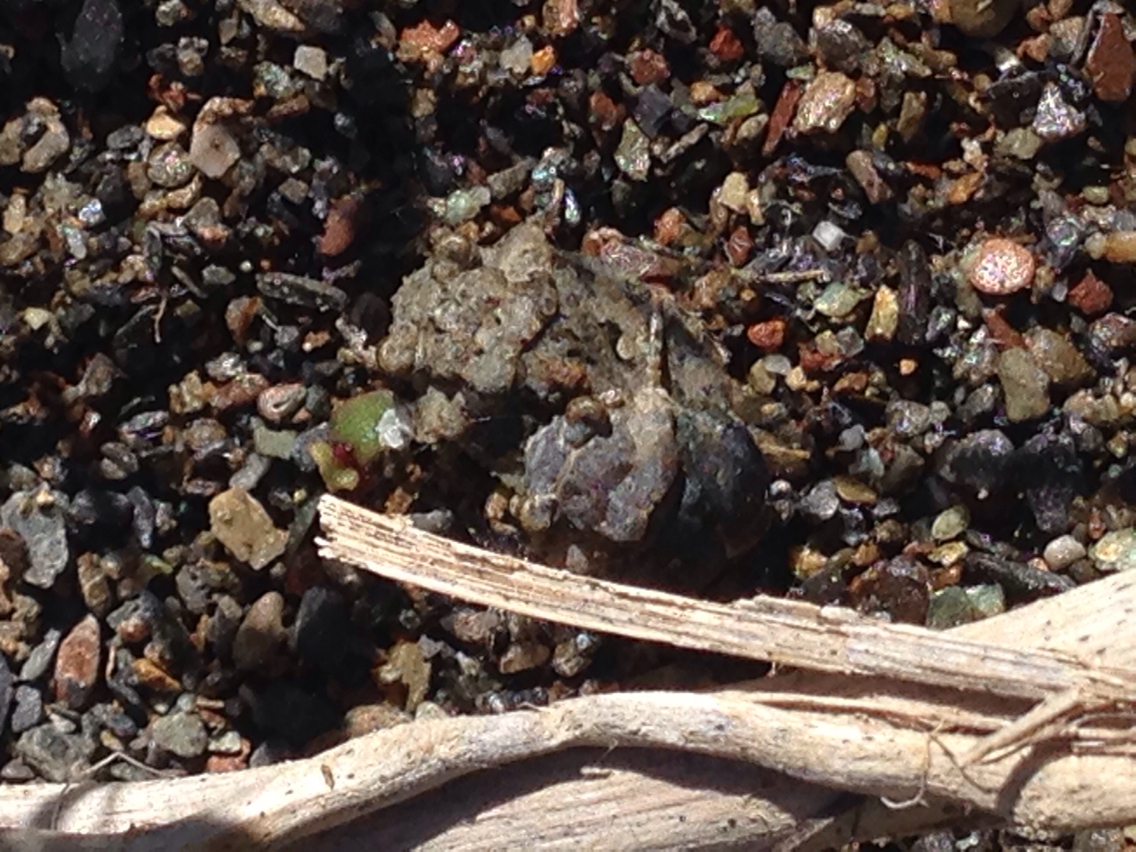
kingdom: Animalia
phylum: Arthropoda
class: Insecta
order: Hemiptera
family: Gelastocoridae
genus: Gelastocoris
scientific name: Gelastocoris oculatus
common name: Toad bug
